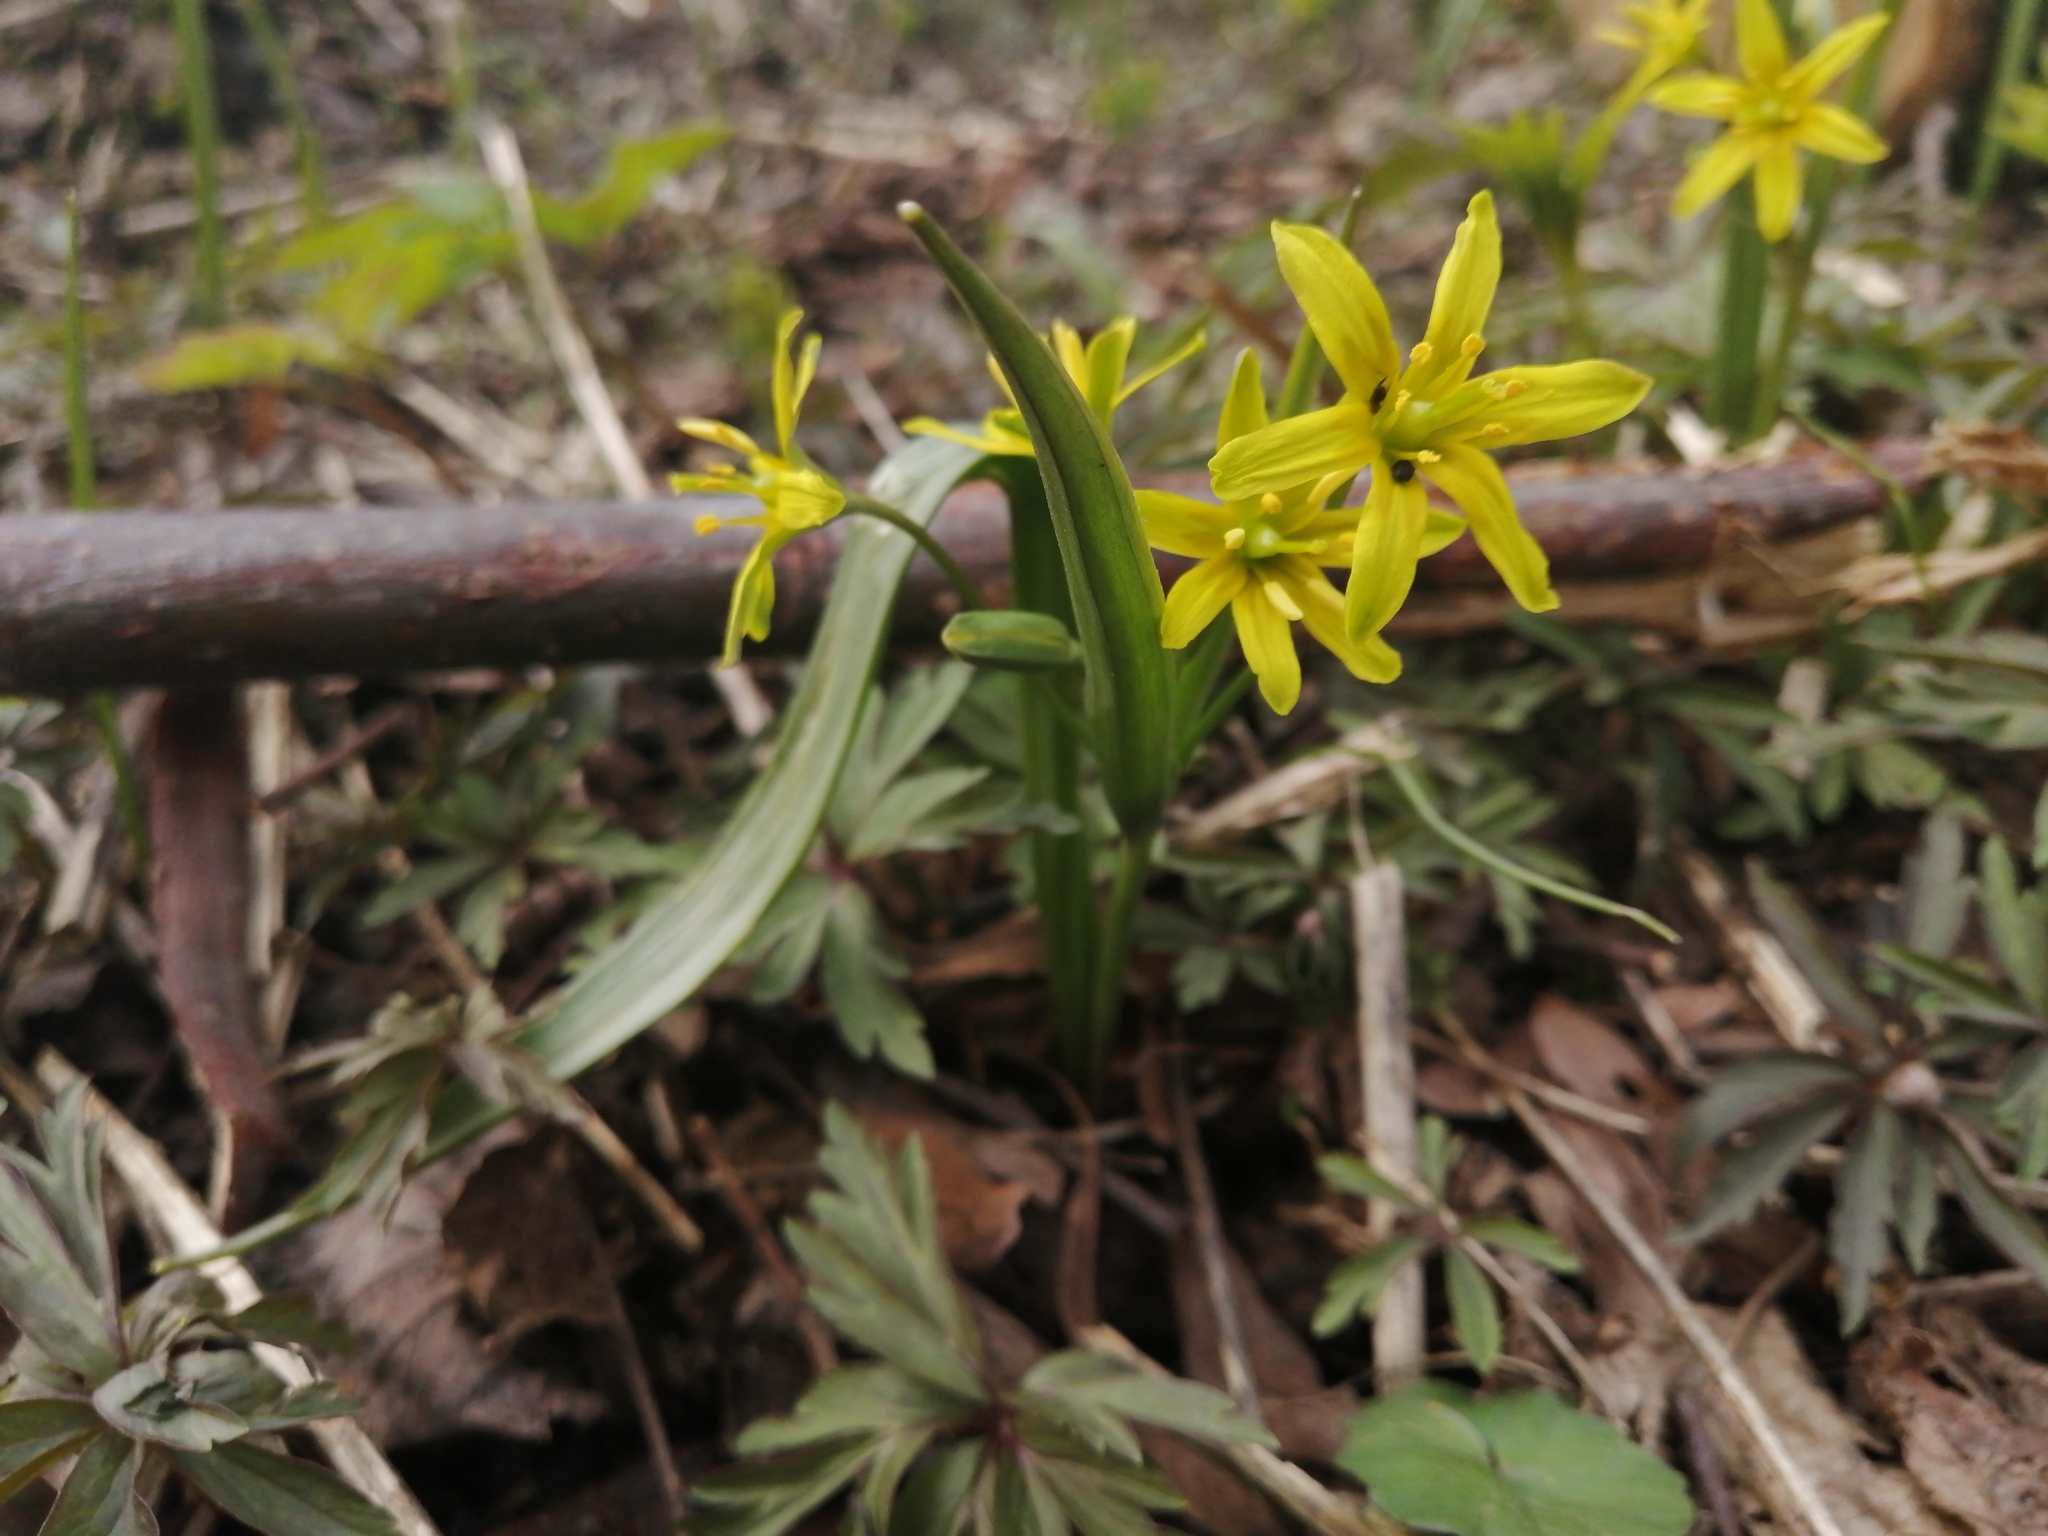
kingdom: Plantae
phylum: Tracheophyta
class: Liliopsida
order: Liliales
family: Liliaceae
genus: Gagea
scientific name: Gagea lutea
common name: Yellow star-of-bethlehem
